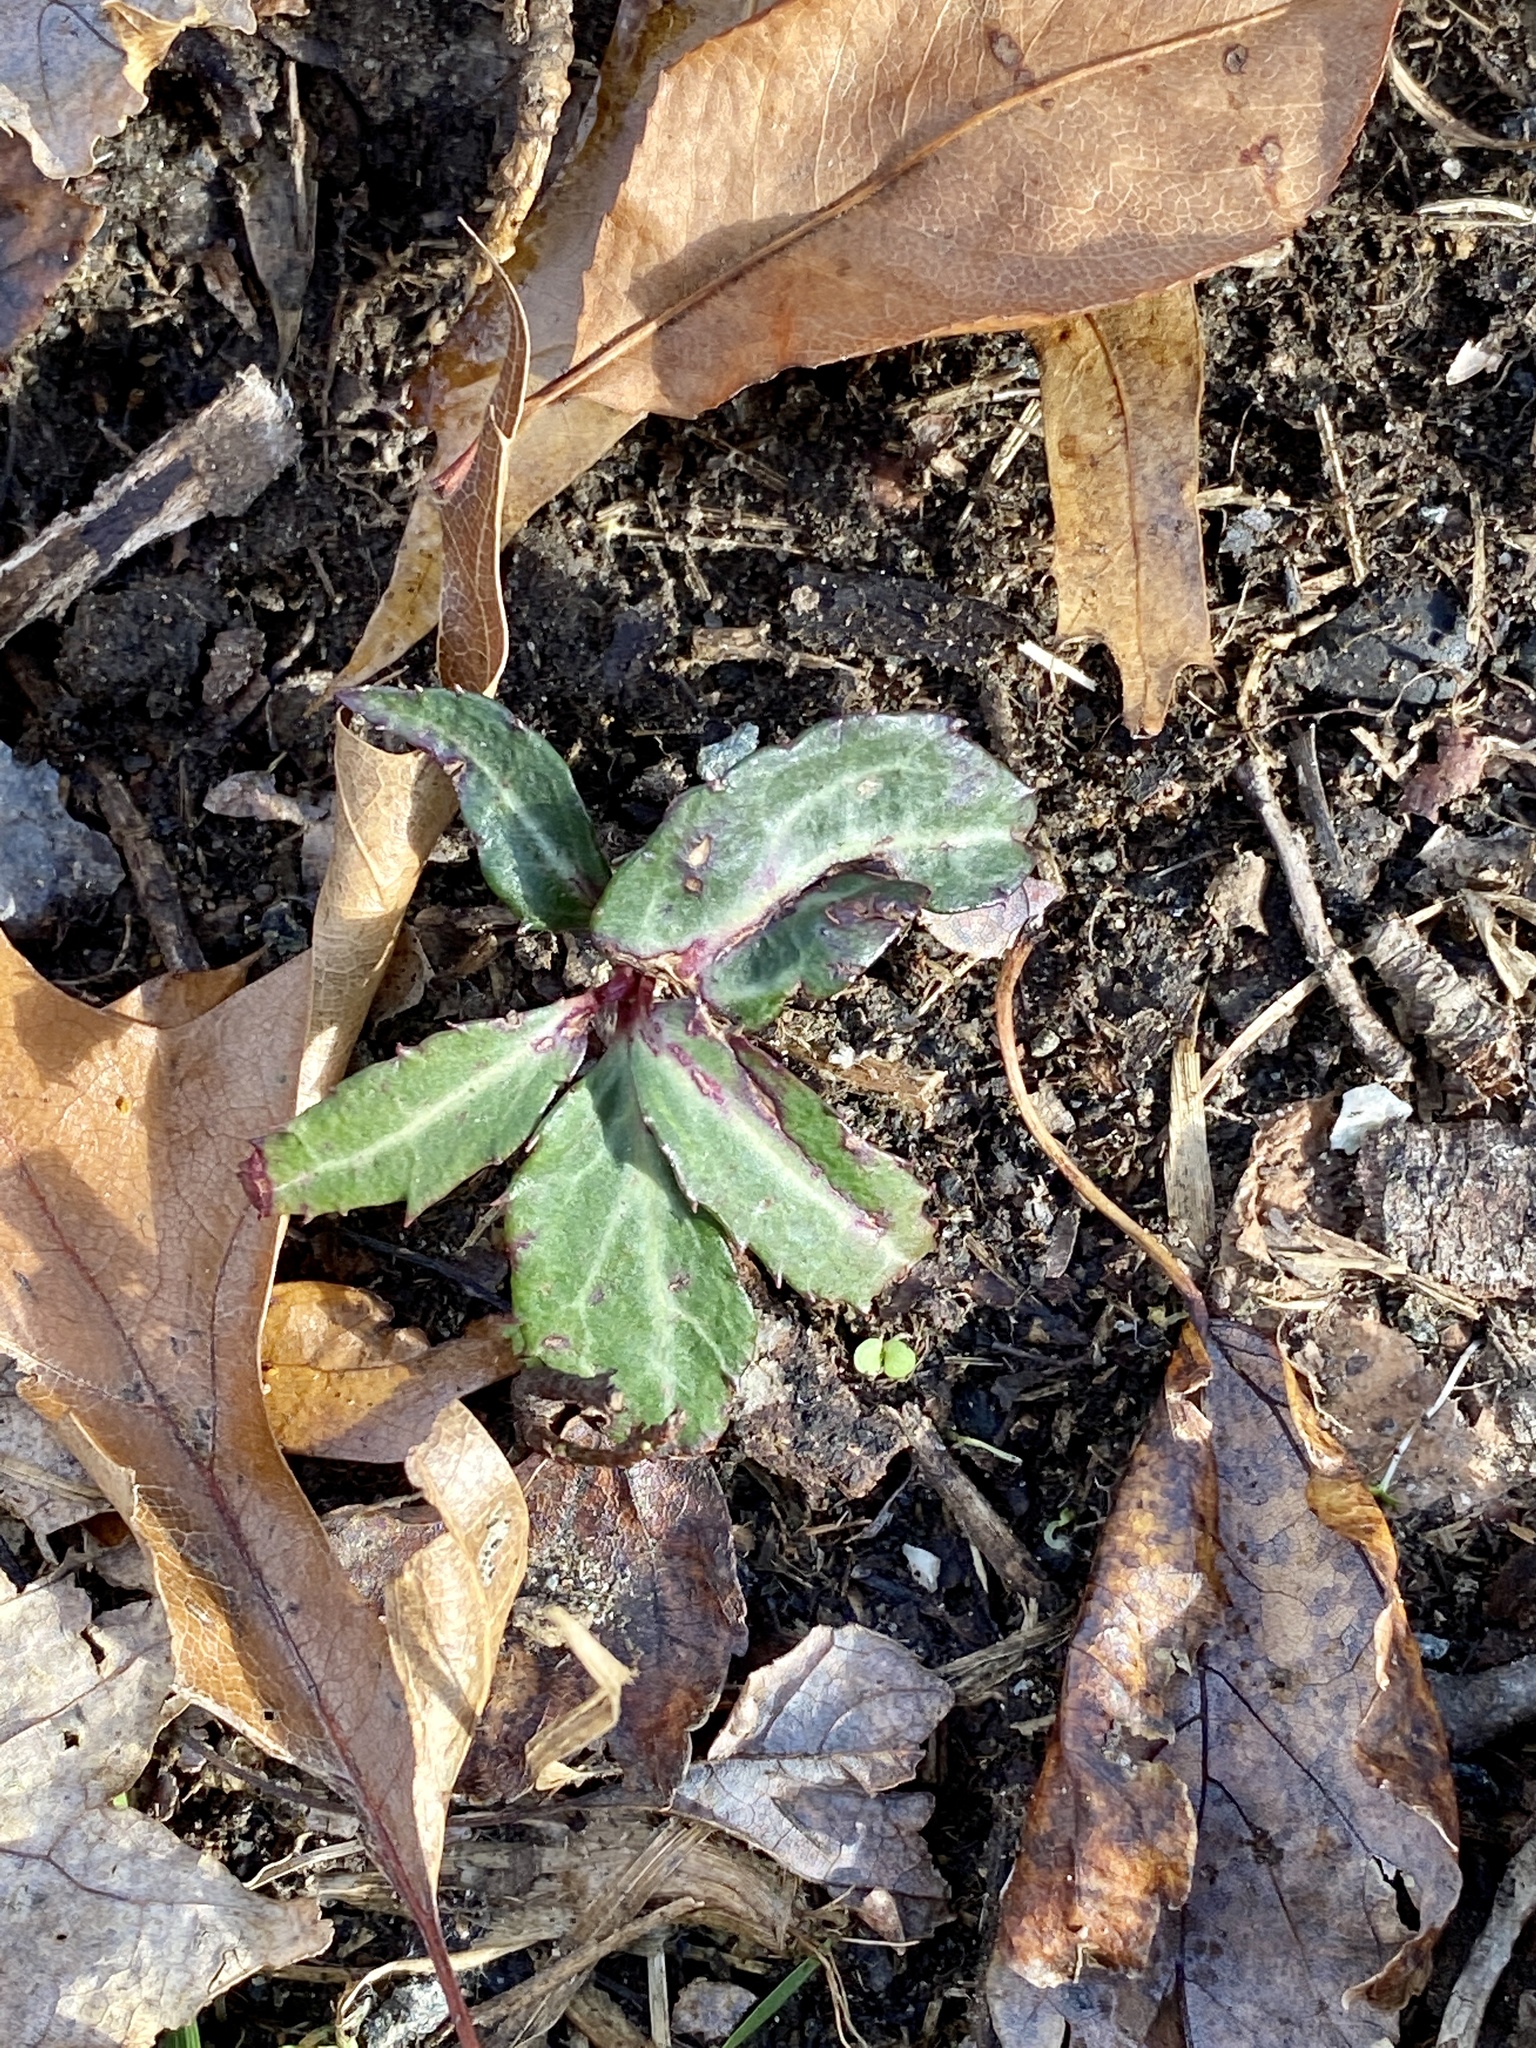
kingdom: Plantae
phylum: Tracheophyta
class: Magnoliopsida
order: Ericales
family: Ericaceae
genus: Chimaphila
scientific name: Chimaphila maculata
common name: Spotted pipsissewa
